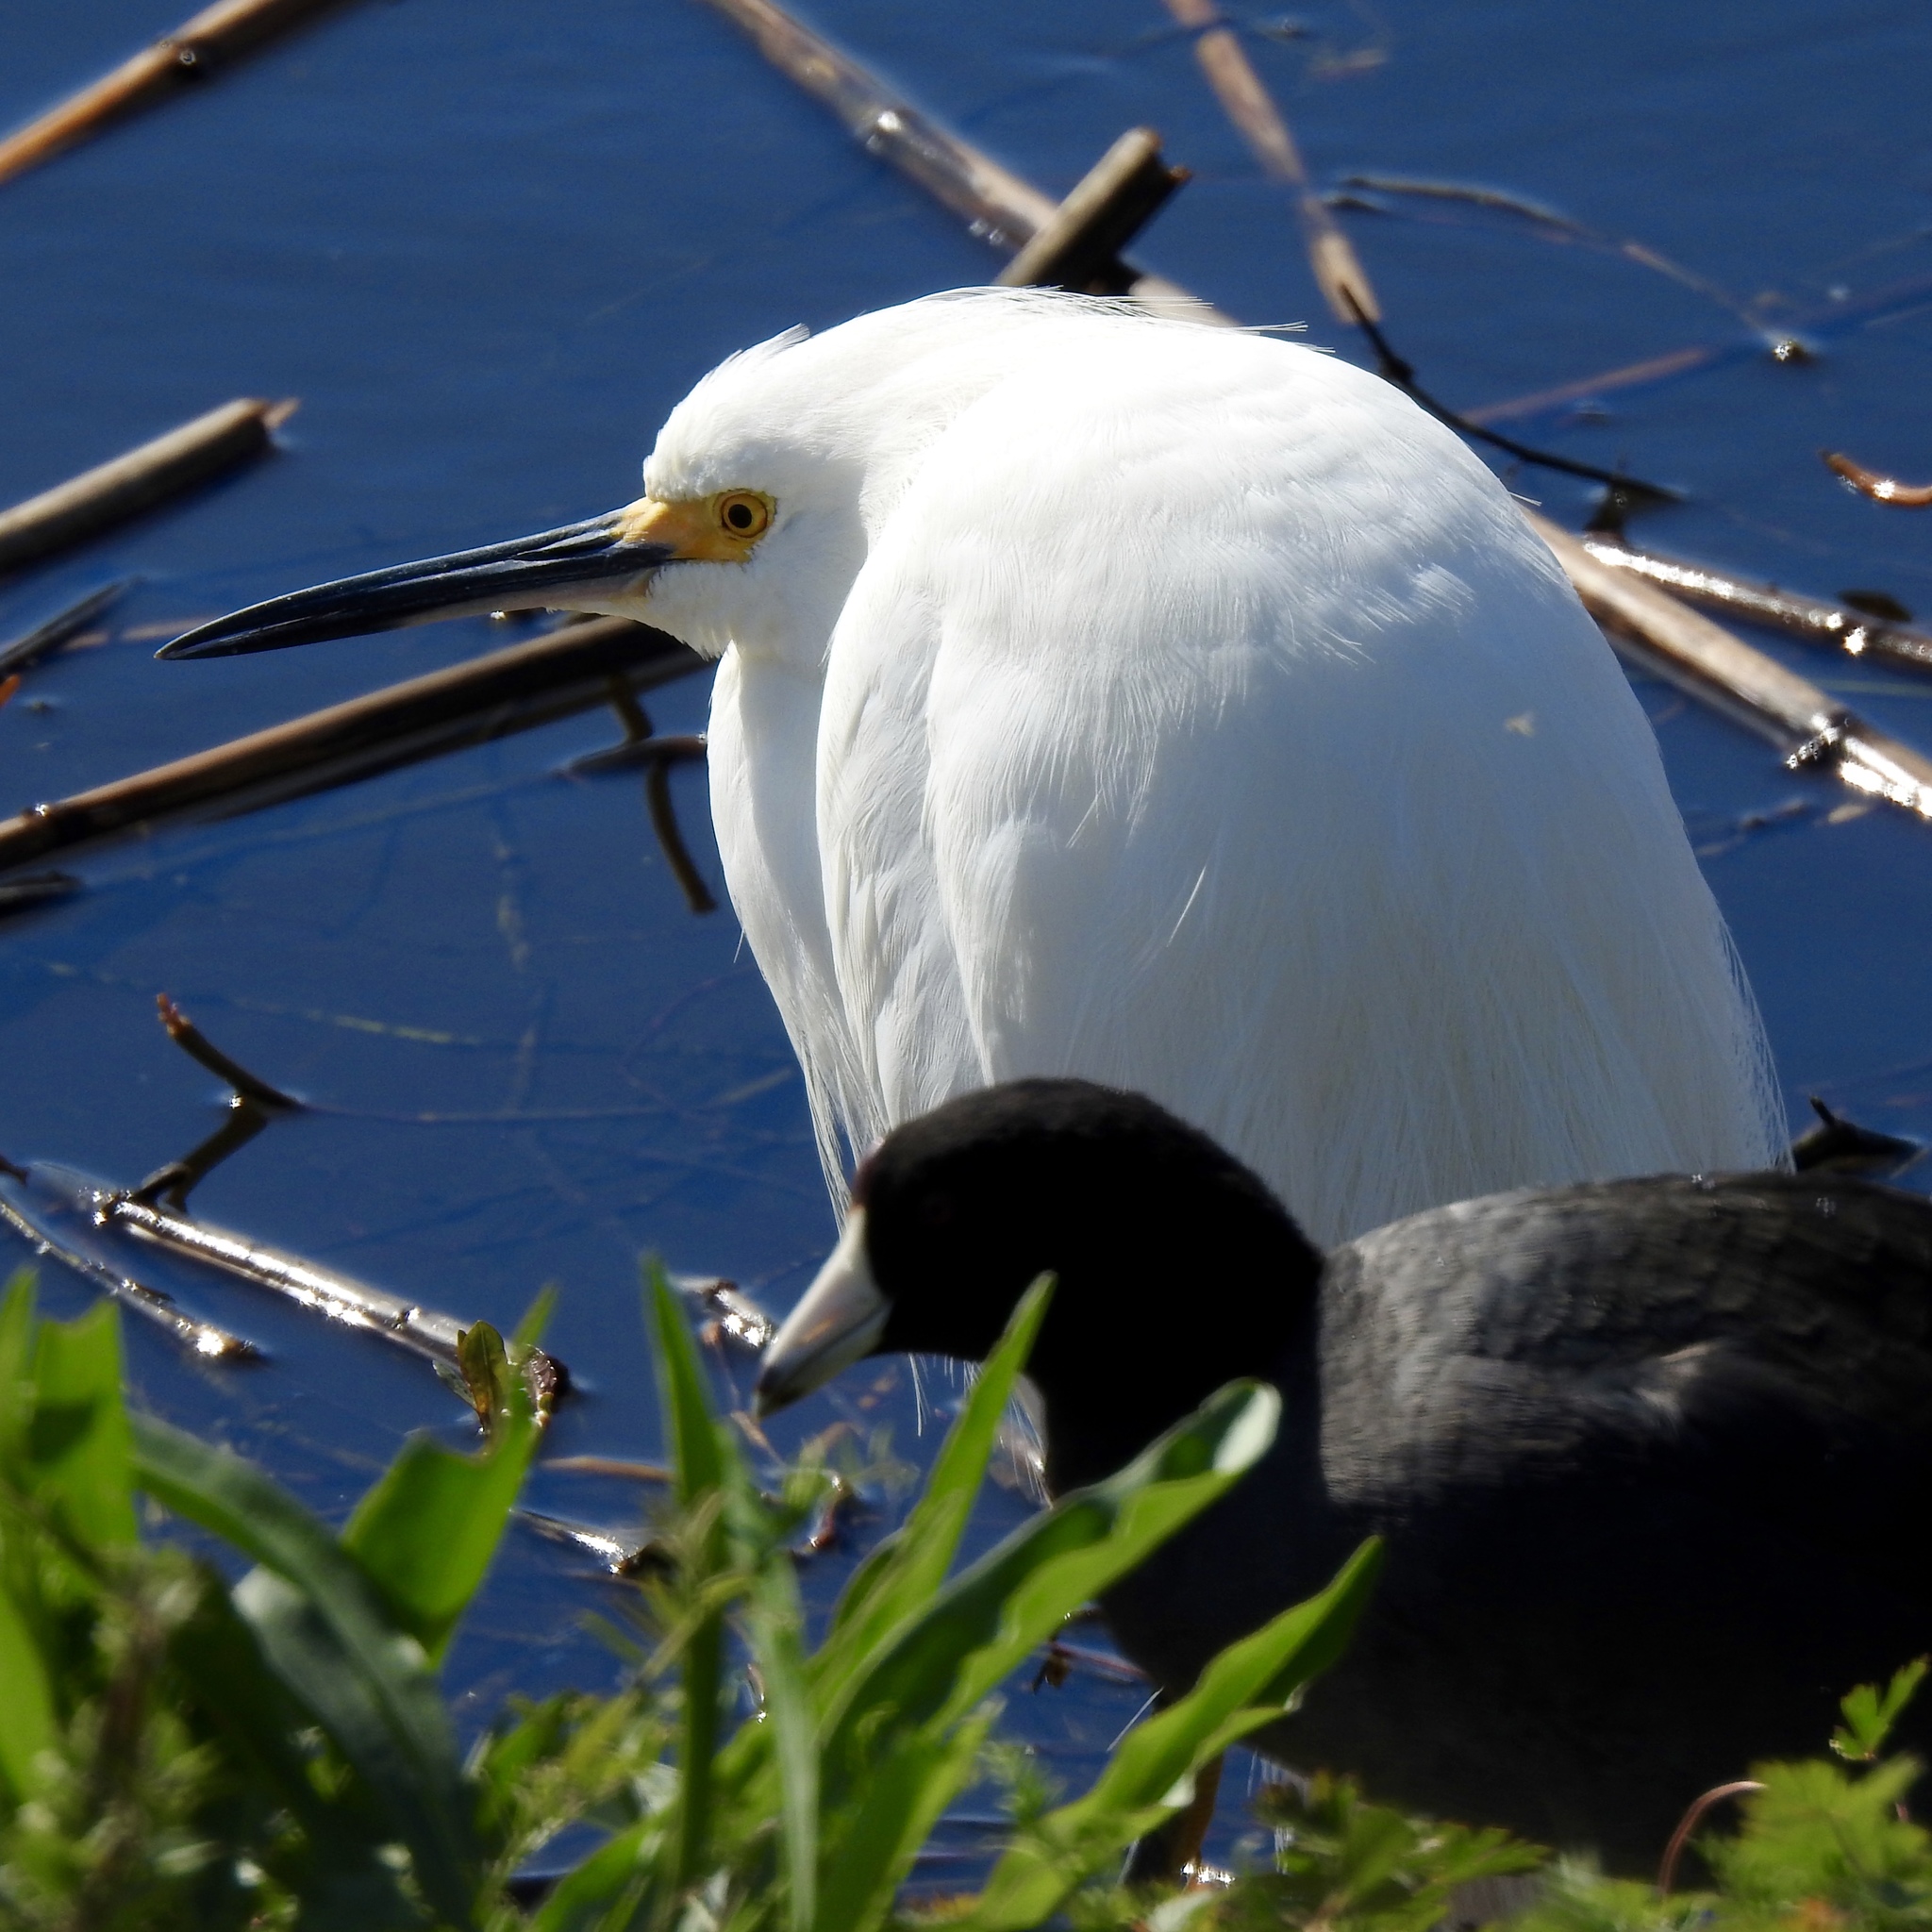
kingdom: Animalia
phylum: Chordata
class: Aves
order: Pelecaniformes
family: Ardeidae
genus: Egretta
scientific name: Egretta thula
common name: Snowy egret
